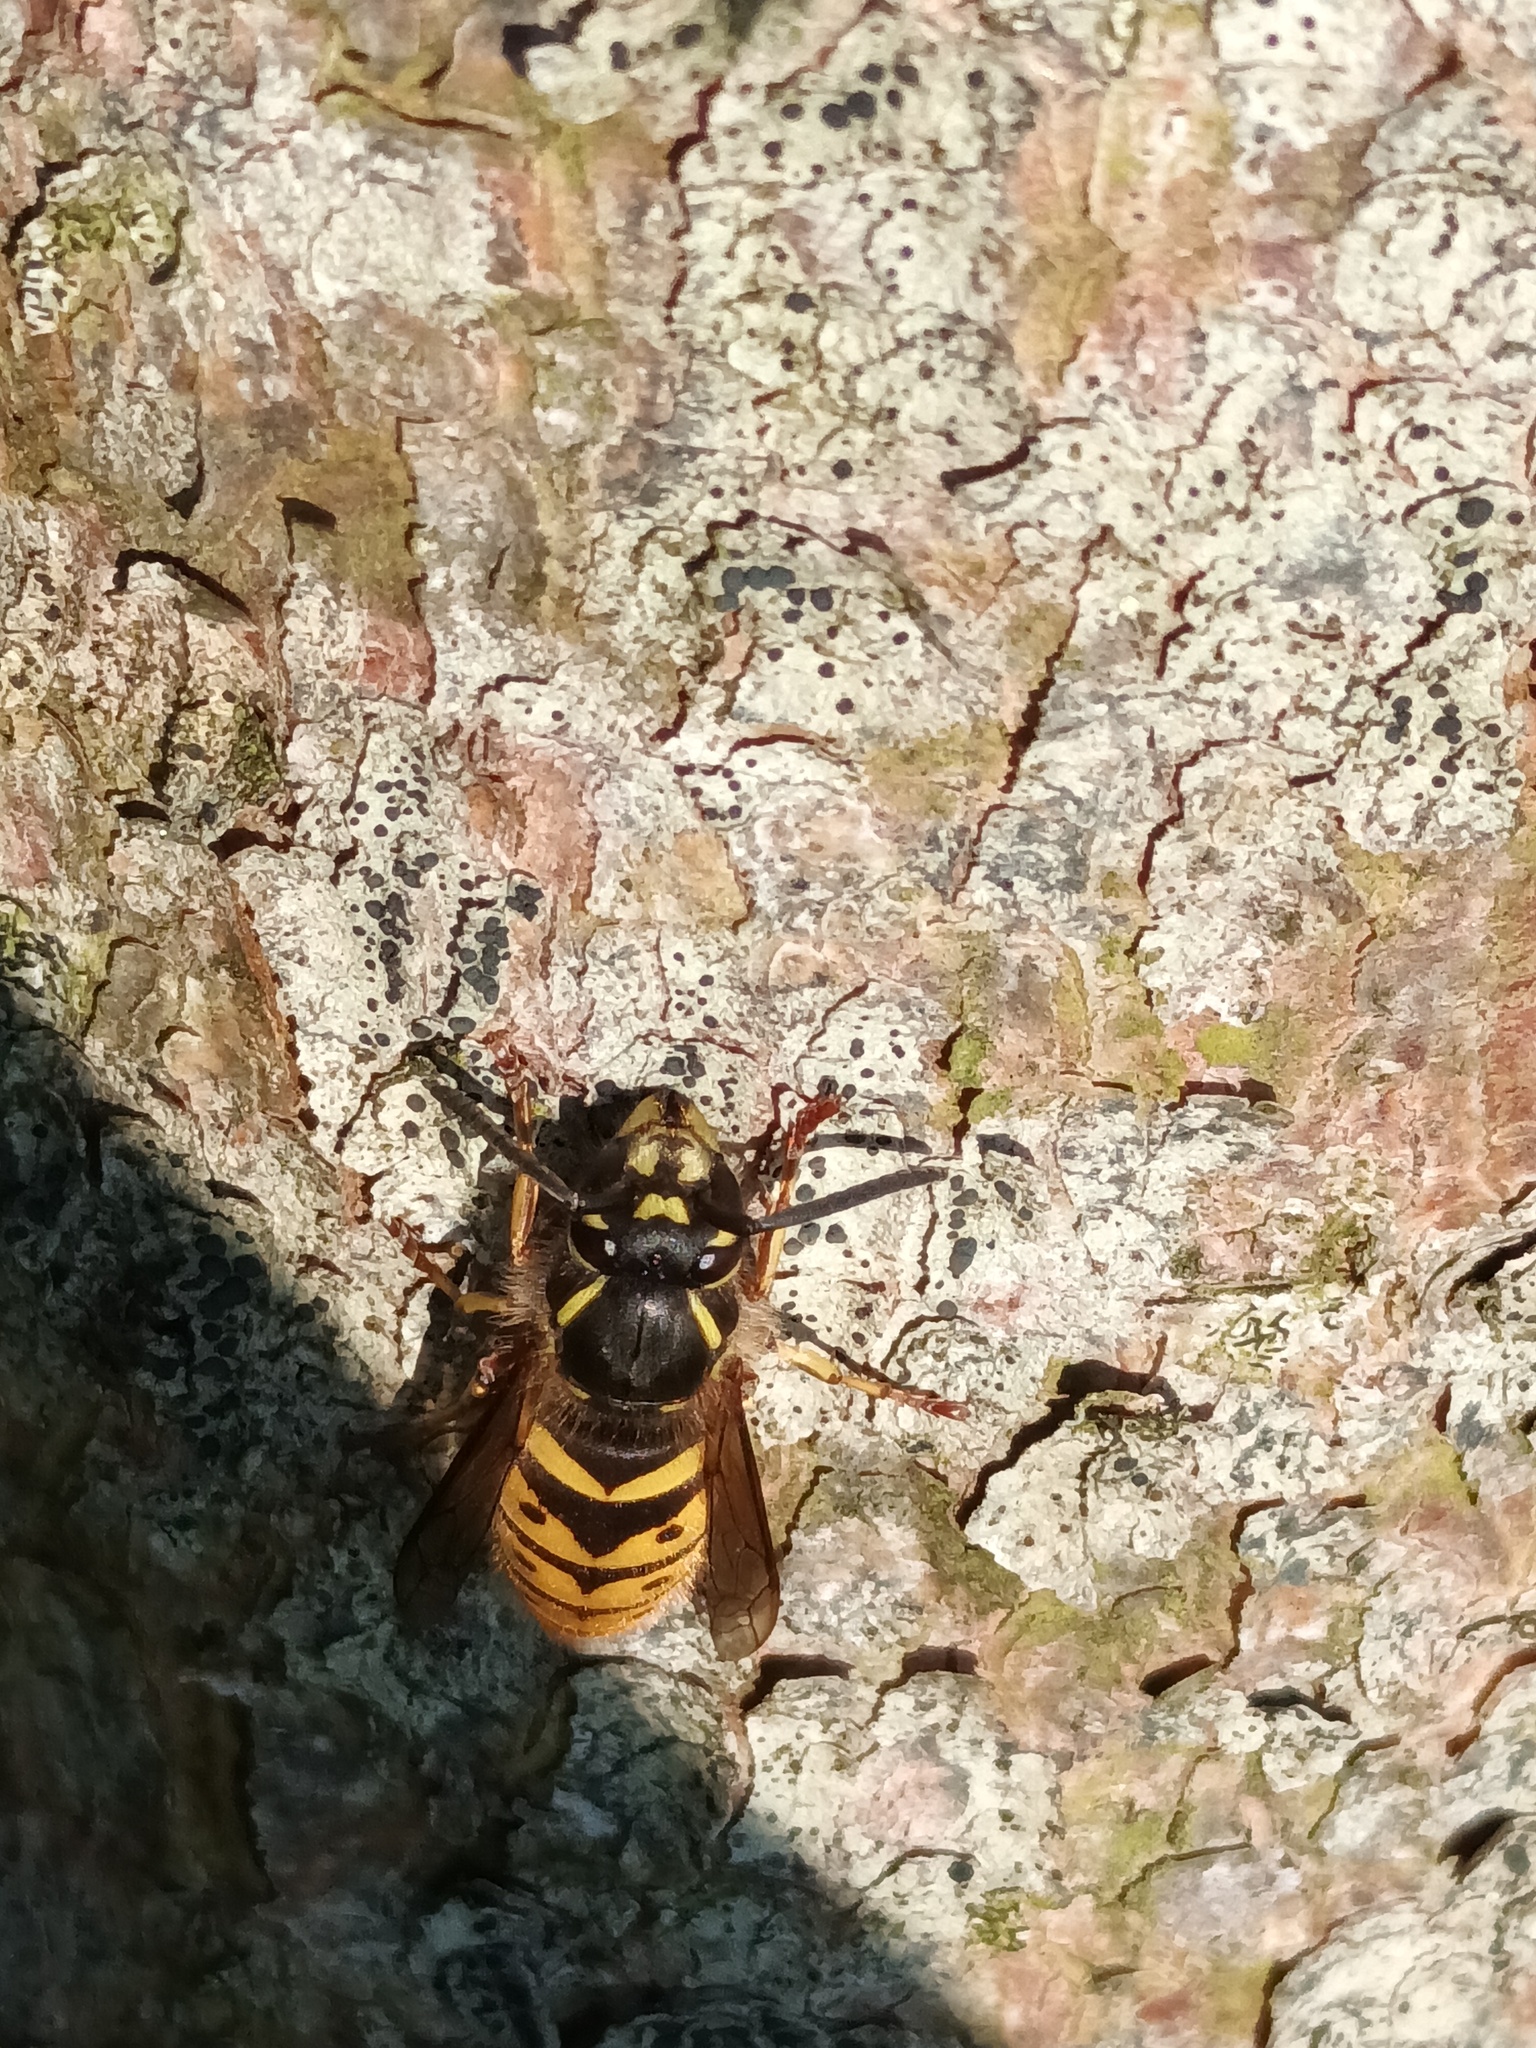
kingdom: Animalia
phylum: Arthropoda
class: Insecta
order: Hymenoptera
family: Vespidae
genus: Vespula
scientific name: Vespula vulgaris
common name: Common wasp
